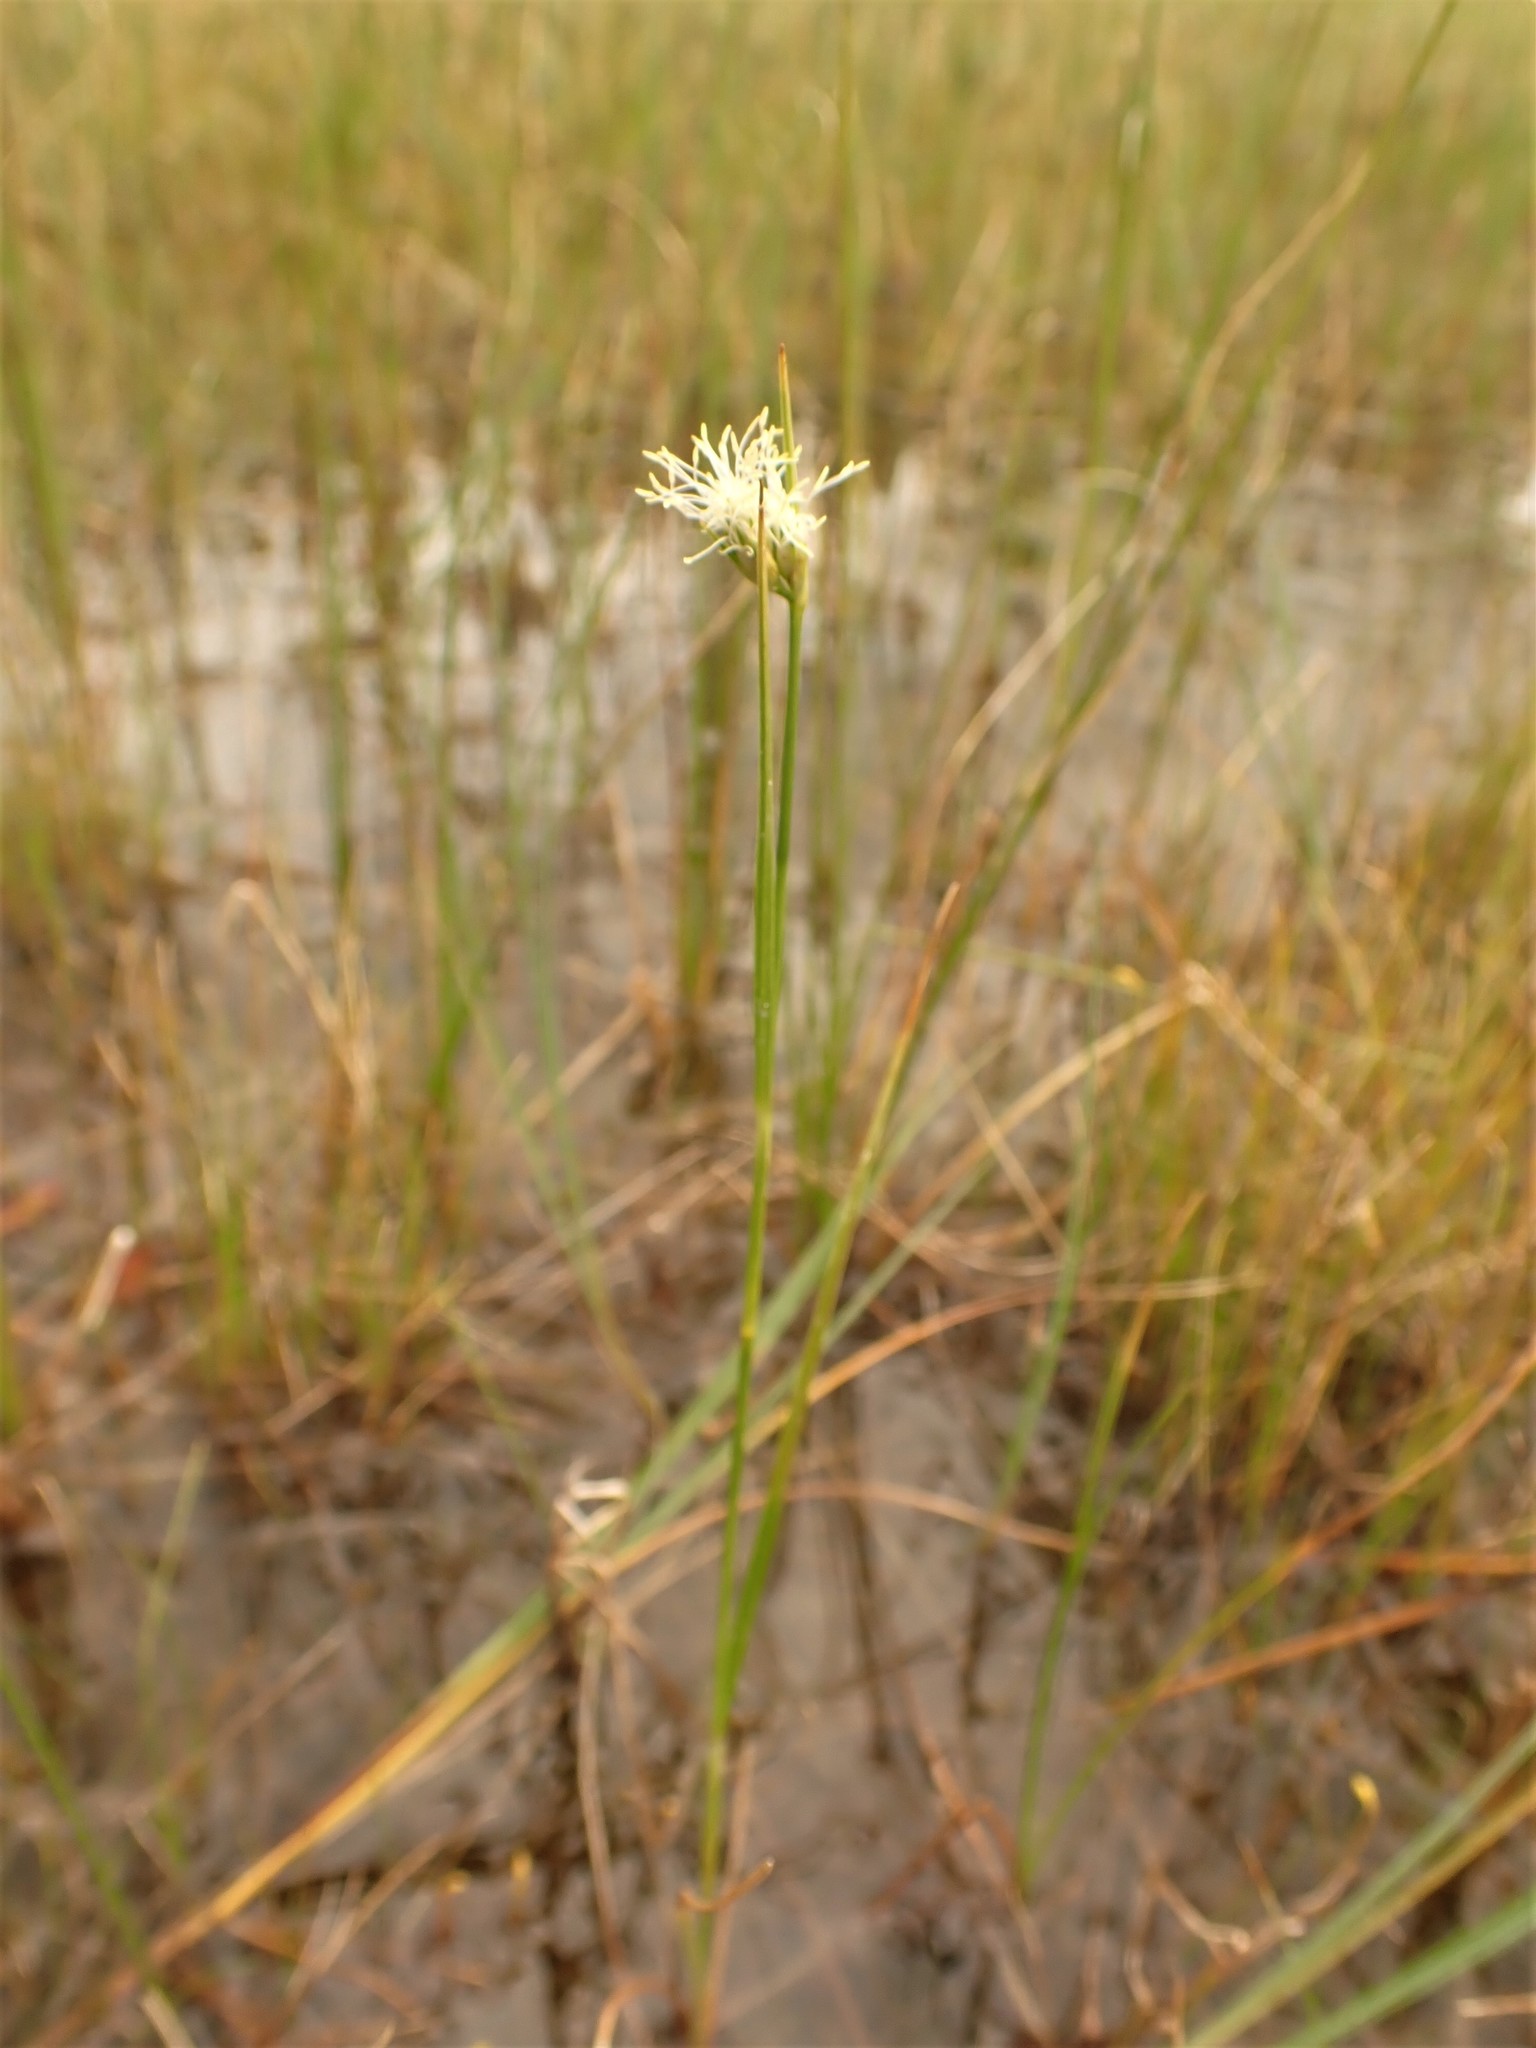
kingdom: Plantae
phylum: Tracheophyta
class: Liliopsida
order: Poales
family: Cyperaceae
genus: Eriophorum
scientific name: Eriophorum virginicum
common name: Tawny cottongrass
